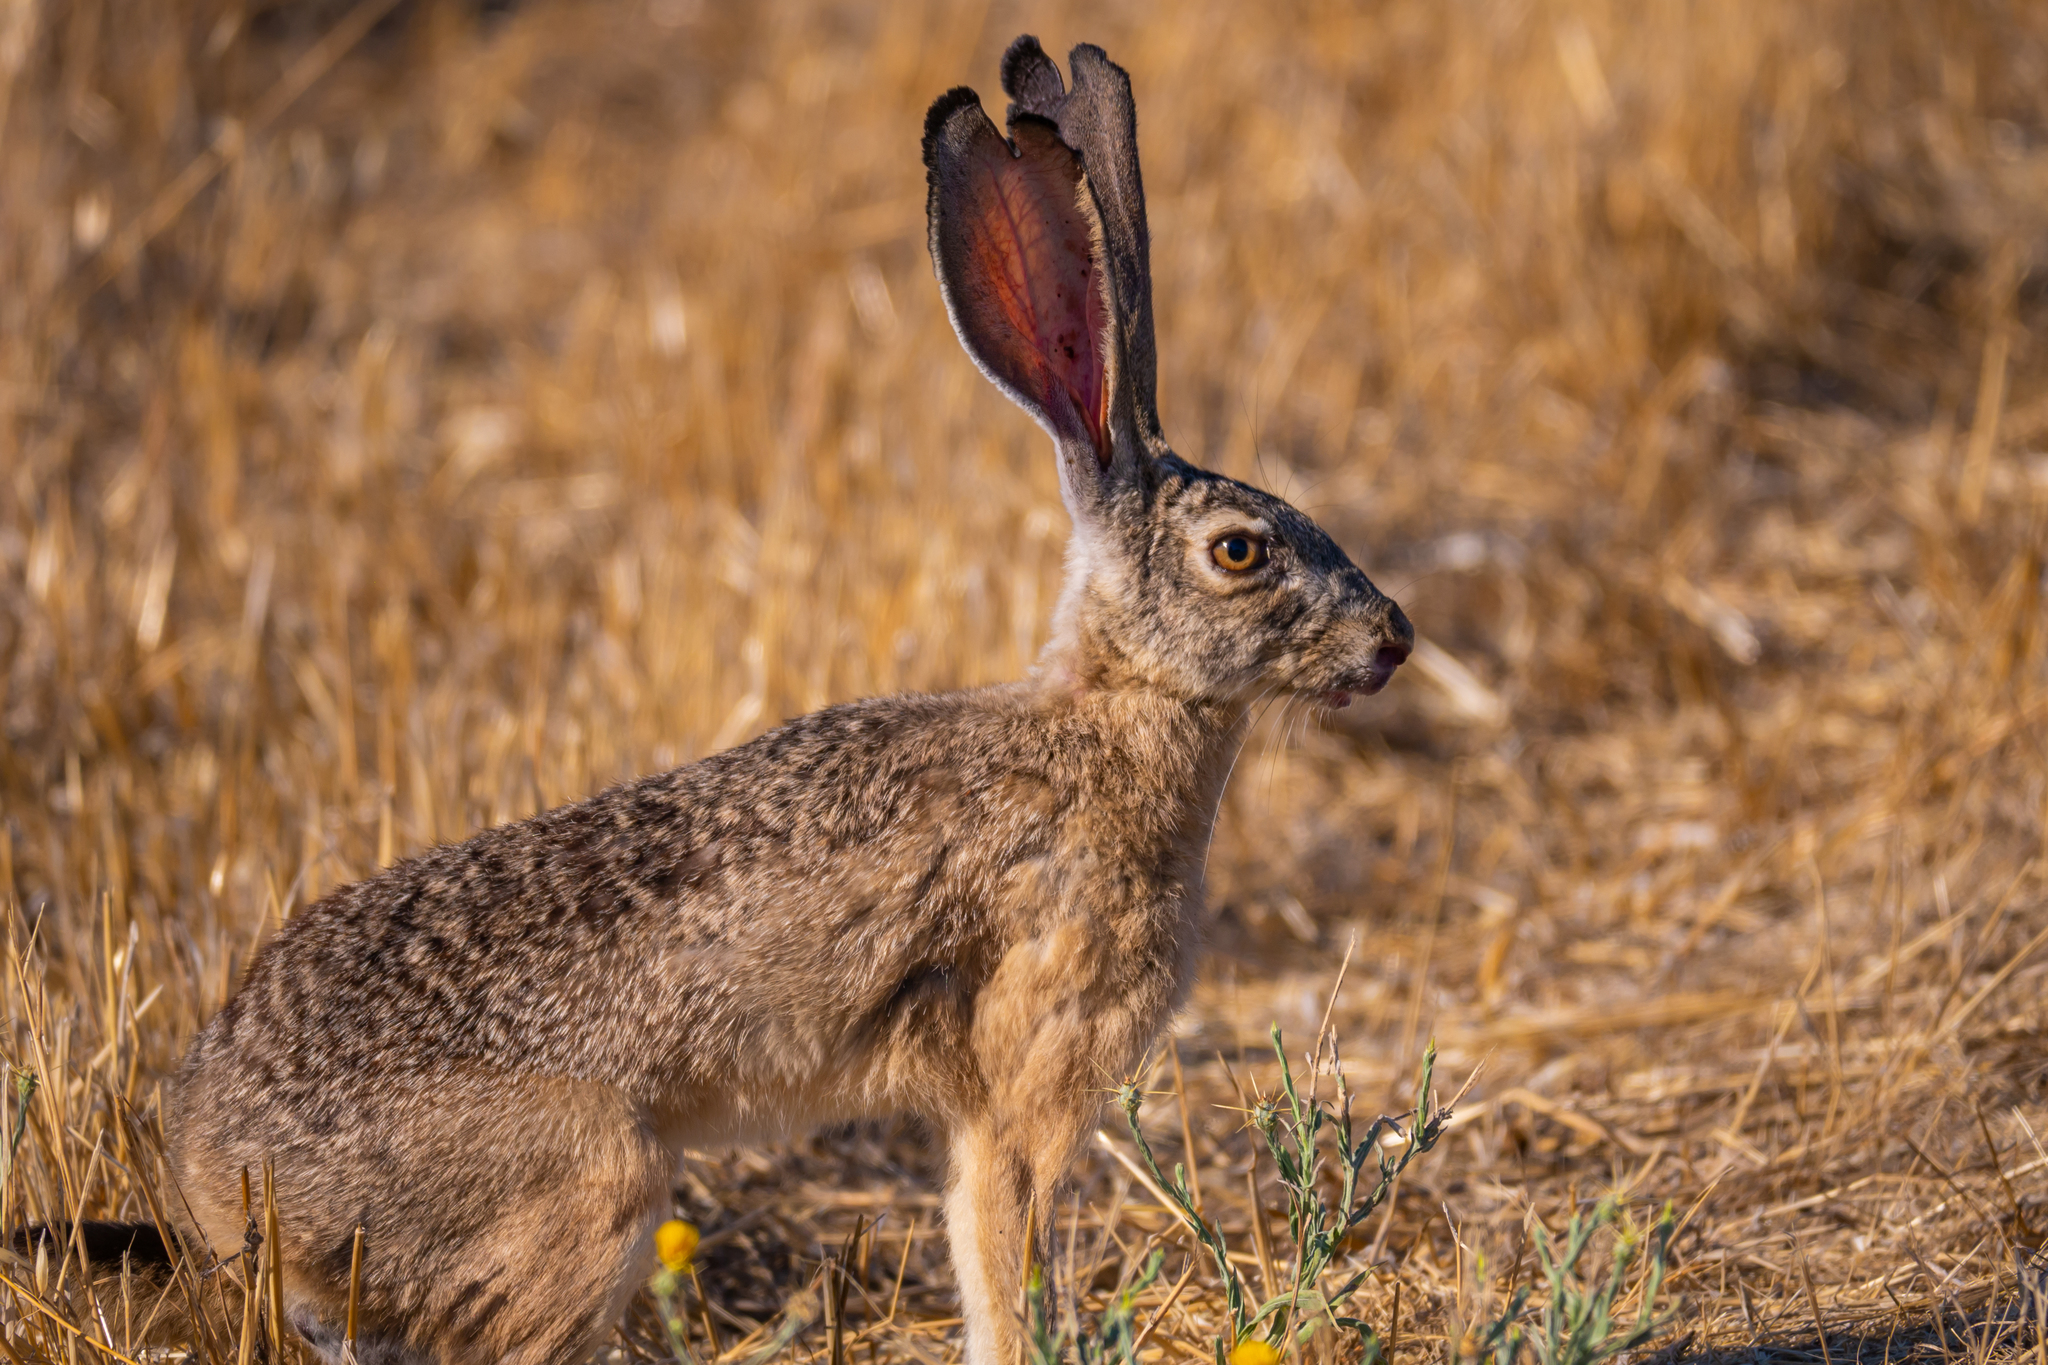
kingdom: Animalia
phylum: Chordata
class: Mammalia
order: Lagomorpha
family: Leporidae
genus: Lepus
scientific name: Lepus californicus
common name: Black-tailed jackrabbit
